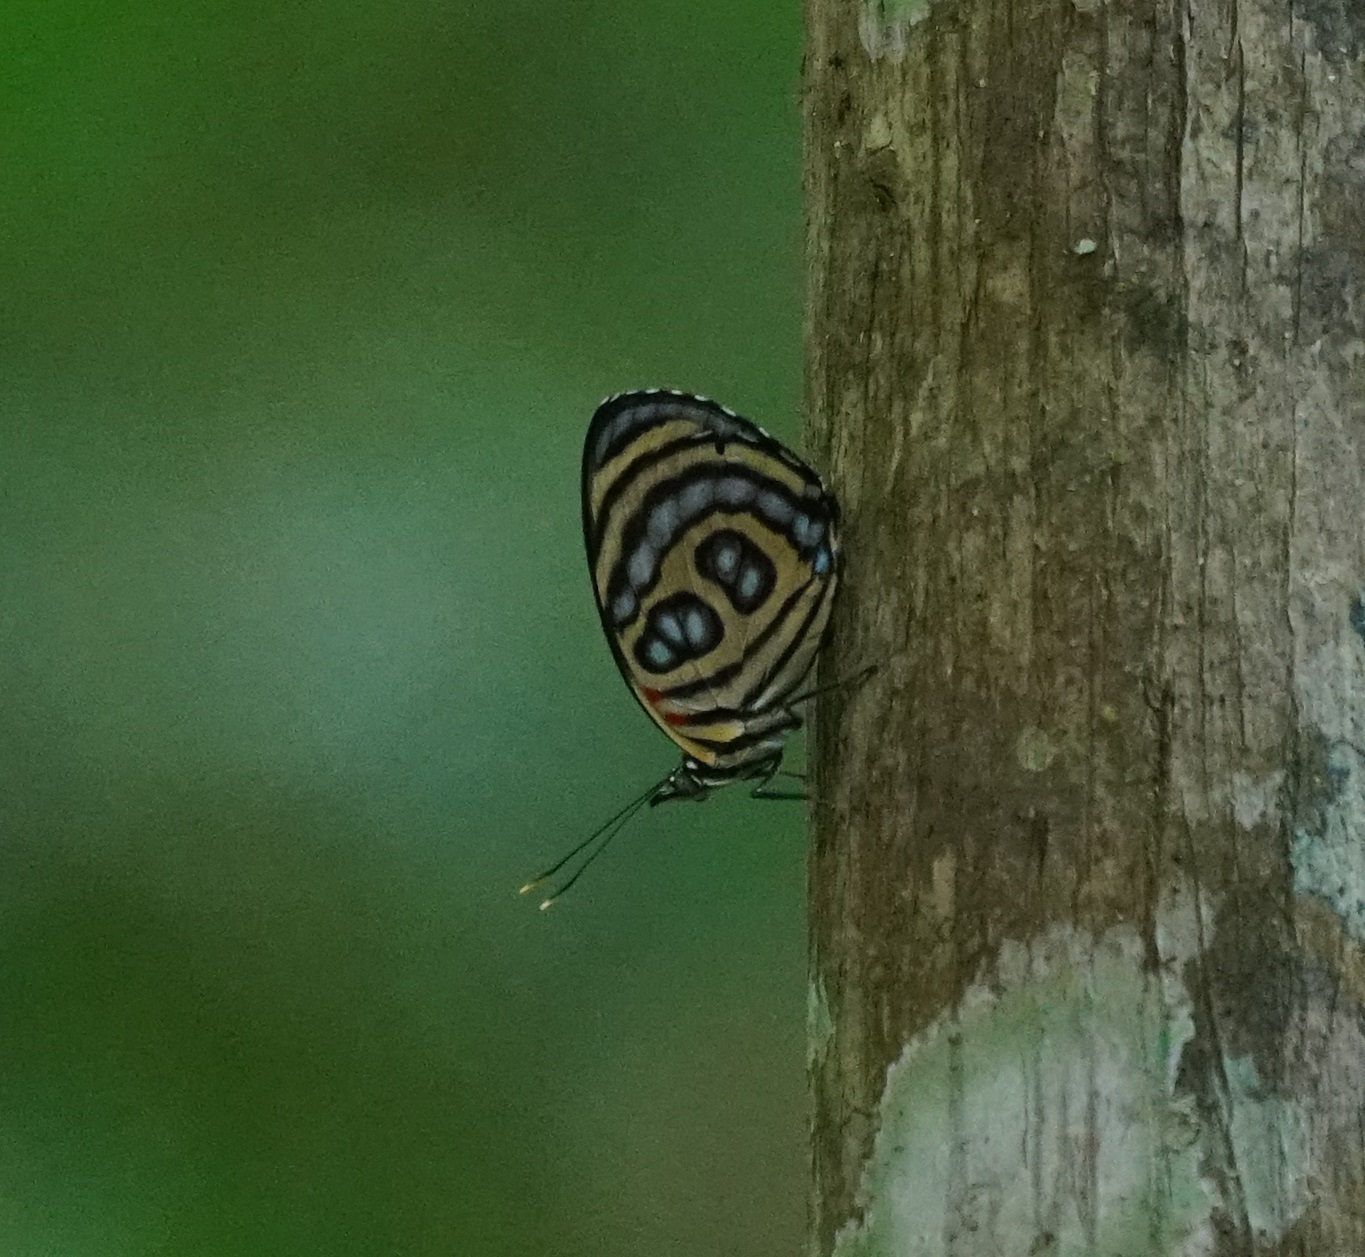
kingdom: Animalia
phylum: Arthropoda
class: Insecta
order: Lepidoptera
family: Nymphalidae
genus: Catagramma
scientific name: Catagramma pygas
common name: Godart's numberwing
